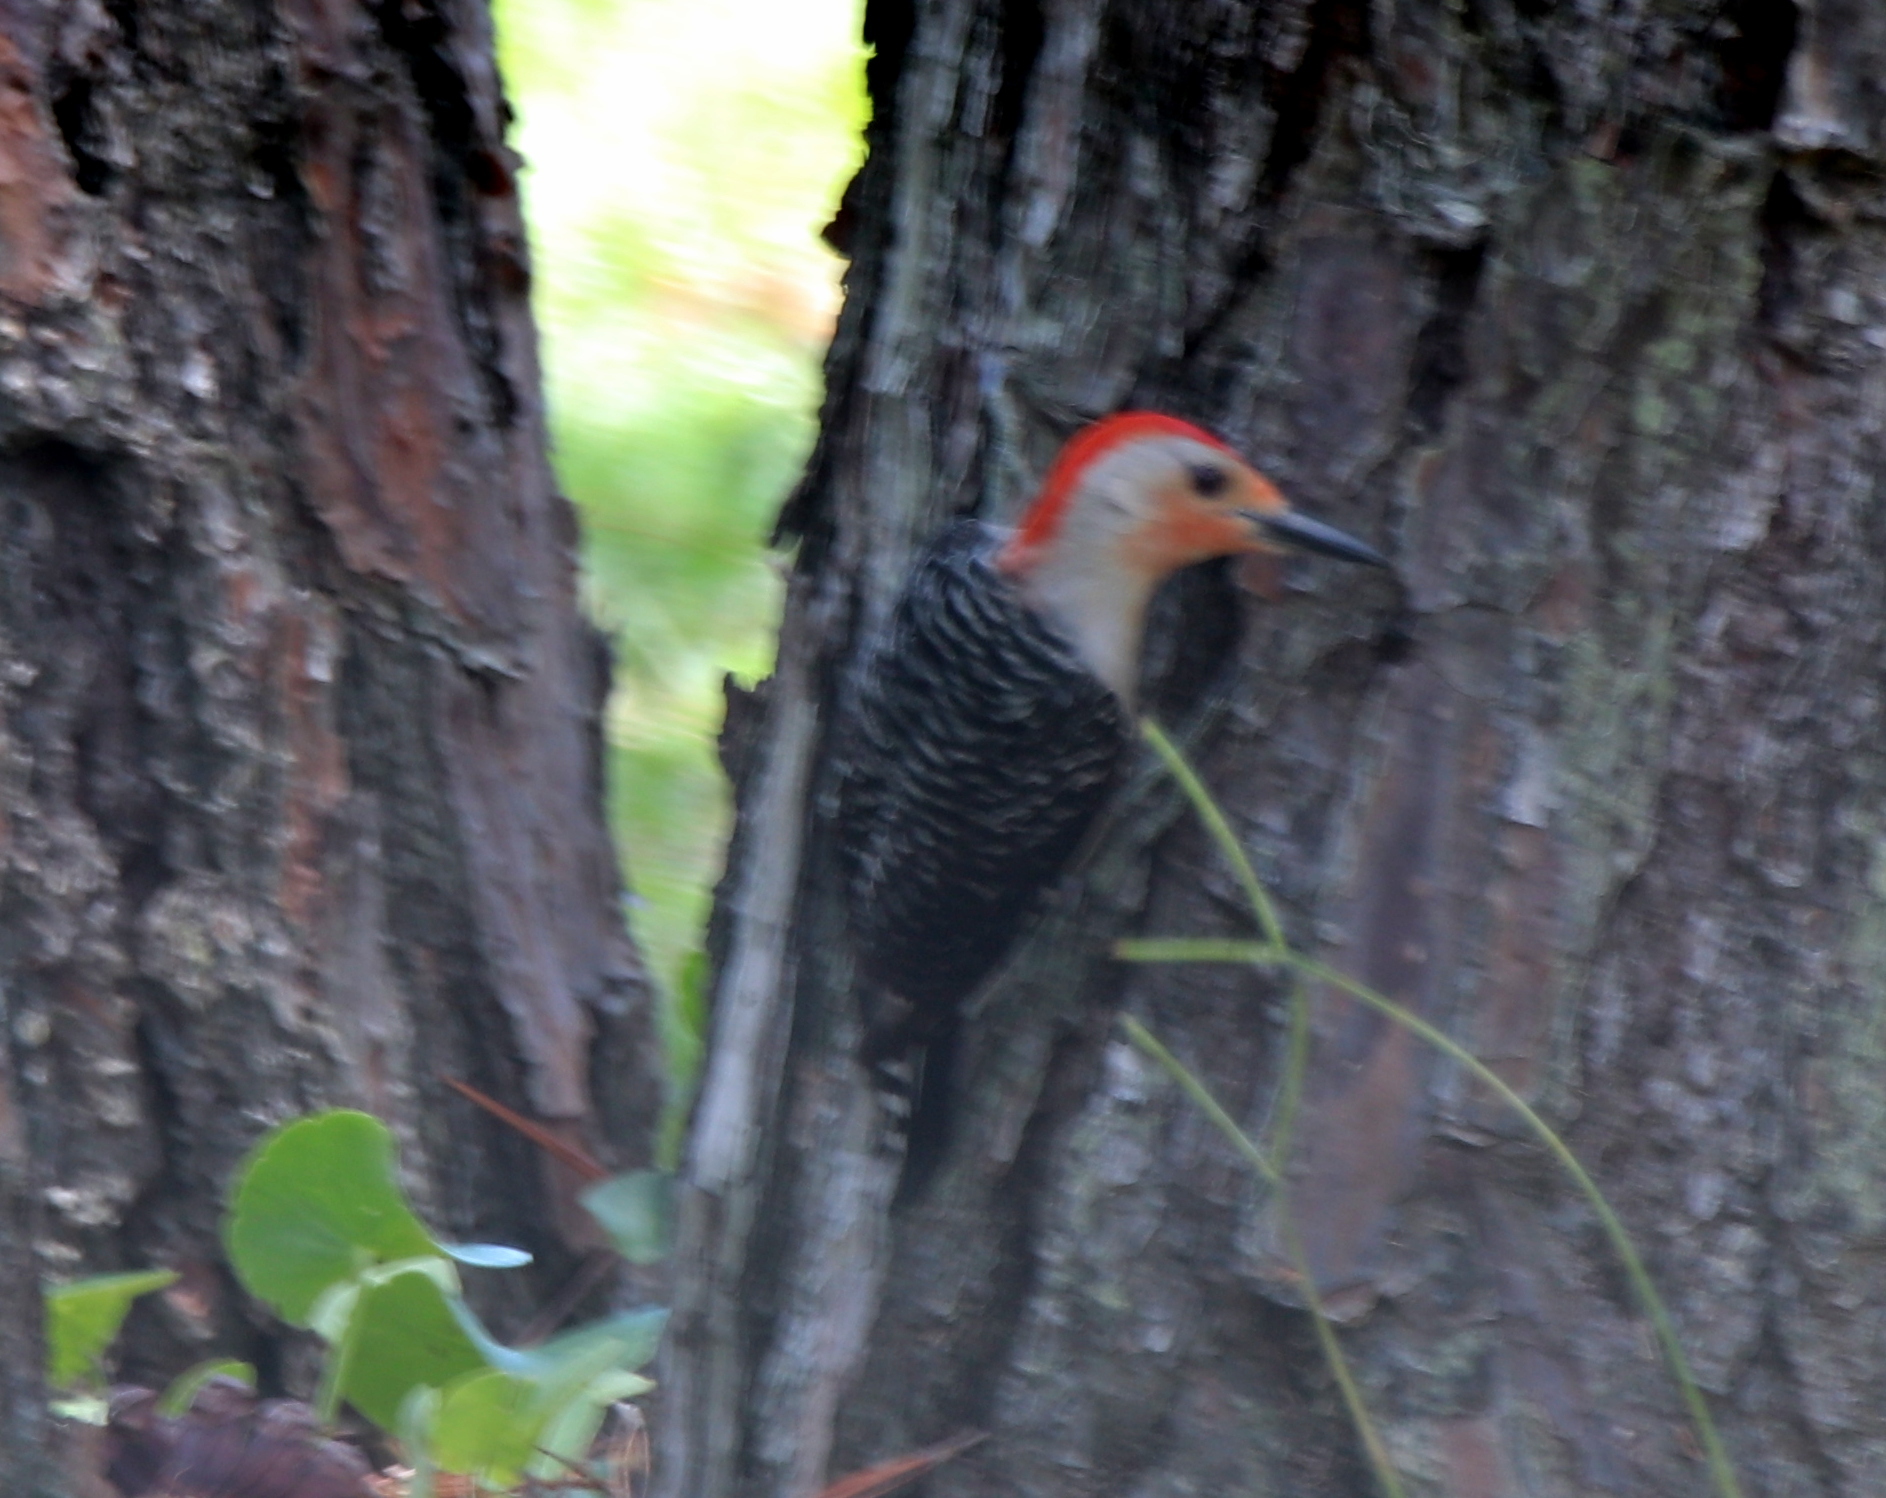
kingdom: Animalia
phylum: Chordata
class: Aves
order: Piciformes
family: Picidae
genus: Melanerpes
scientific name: Melanerpes carolinus
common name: Red-bellied woodpecker
